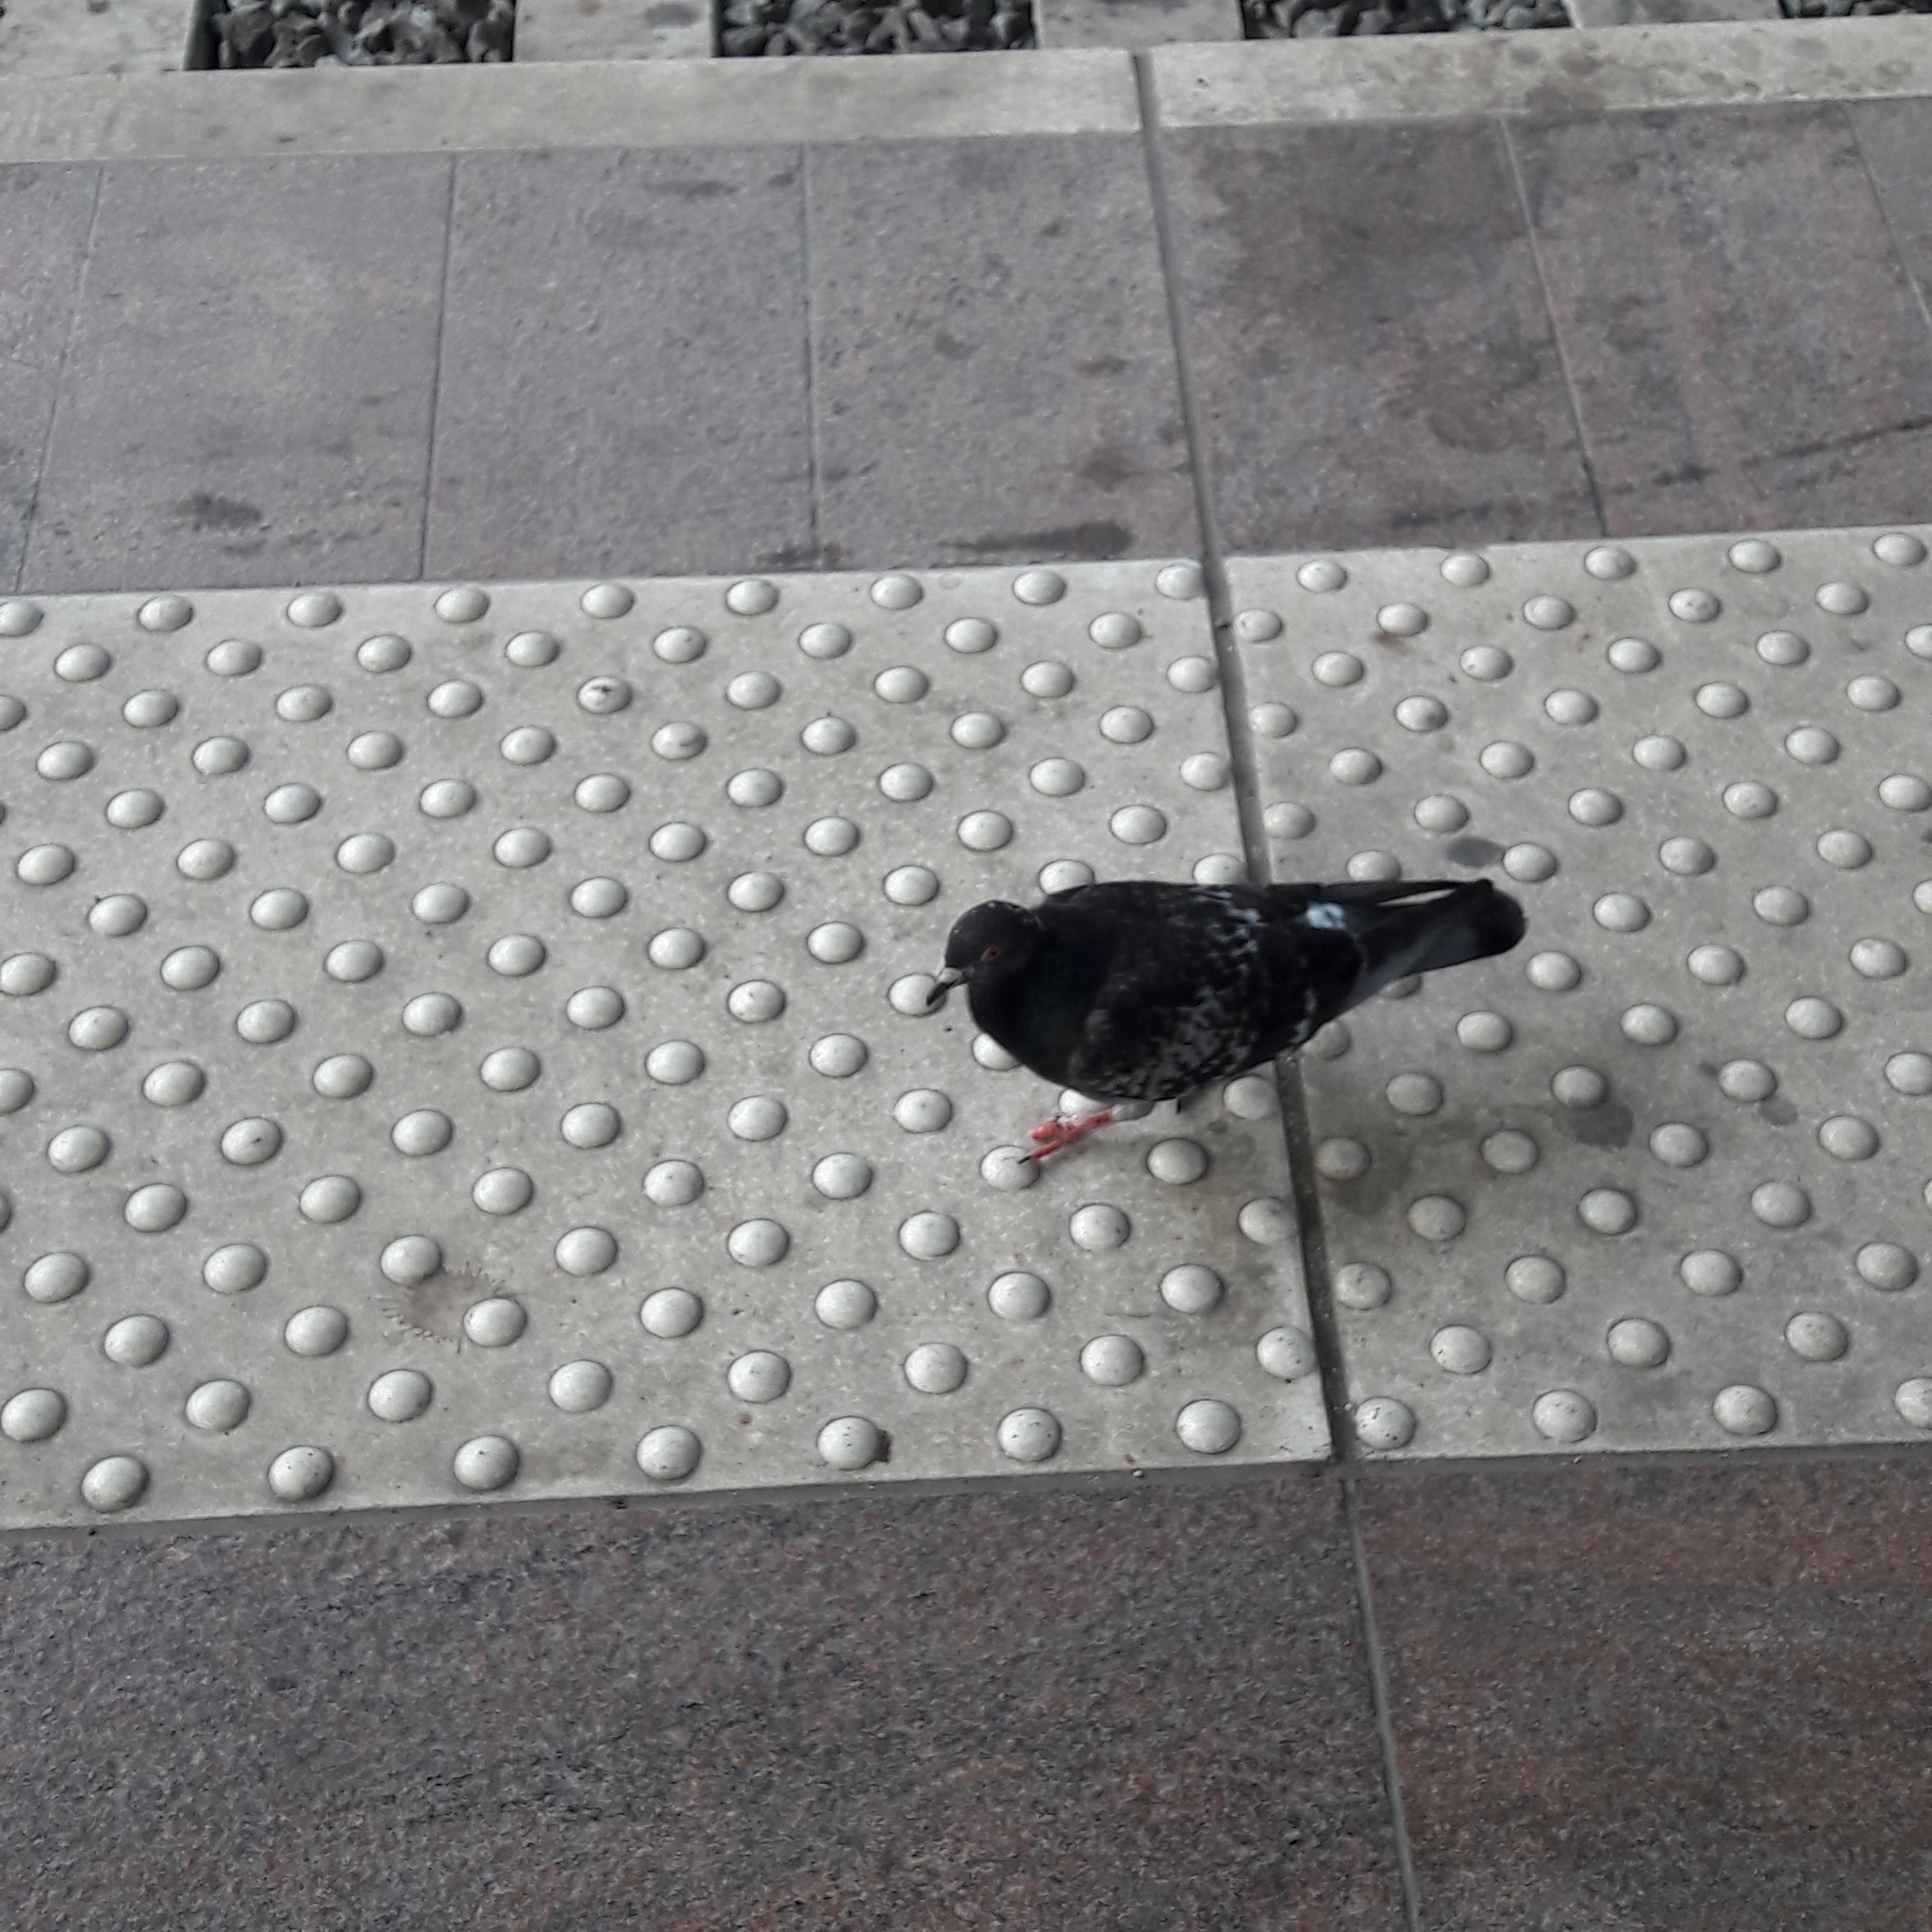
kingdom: Animalia
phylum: Chordata
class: Aves
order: Columbiformes
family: Columbidae
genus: Columba
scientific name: Columba livia
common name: Rock pigeon
